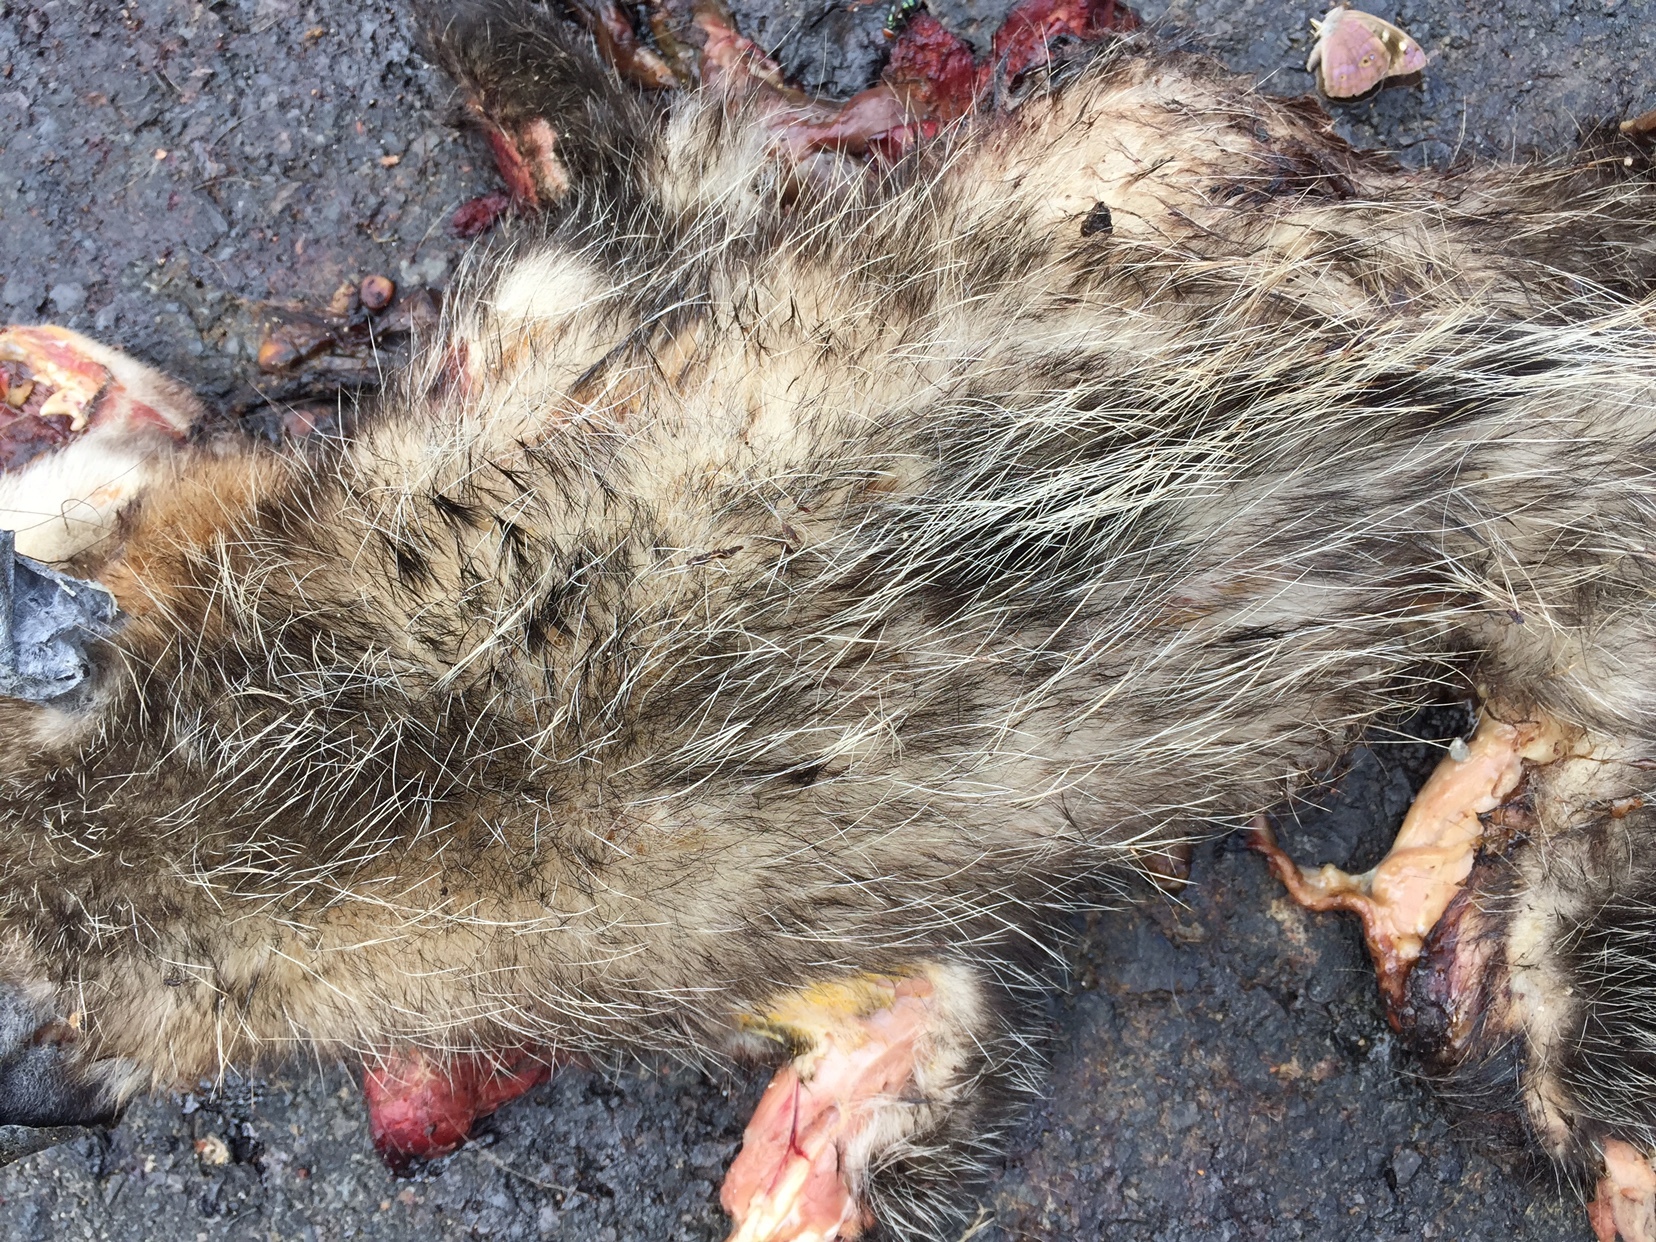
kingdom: Animalia
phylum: Chordata
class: Mammalia
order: Didelphimorphia
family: Didelphidae
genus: Didelphis
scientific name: Didelphis virginiana
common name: Virginia opossum
